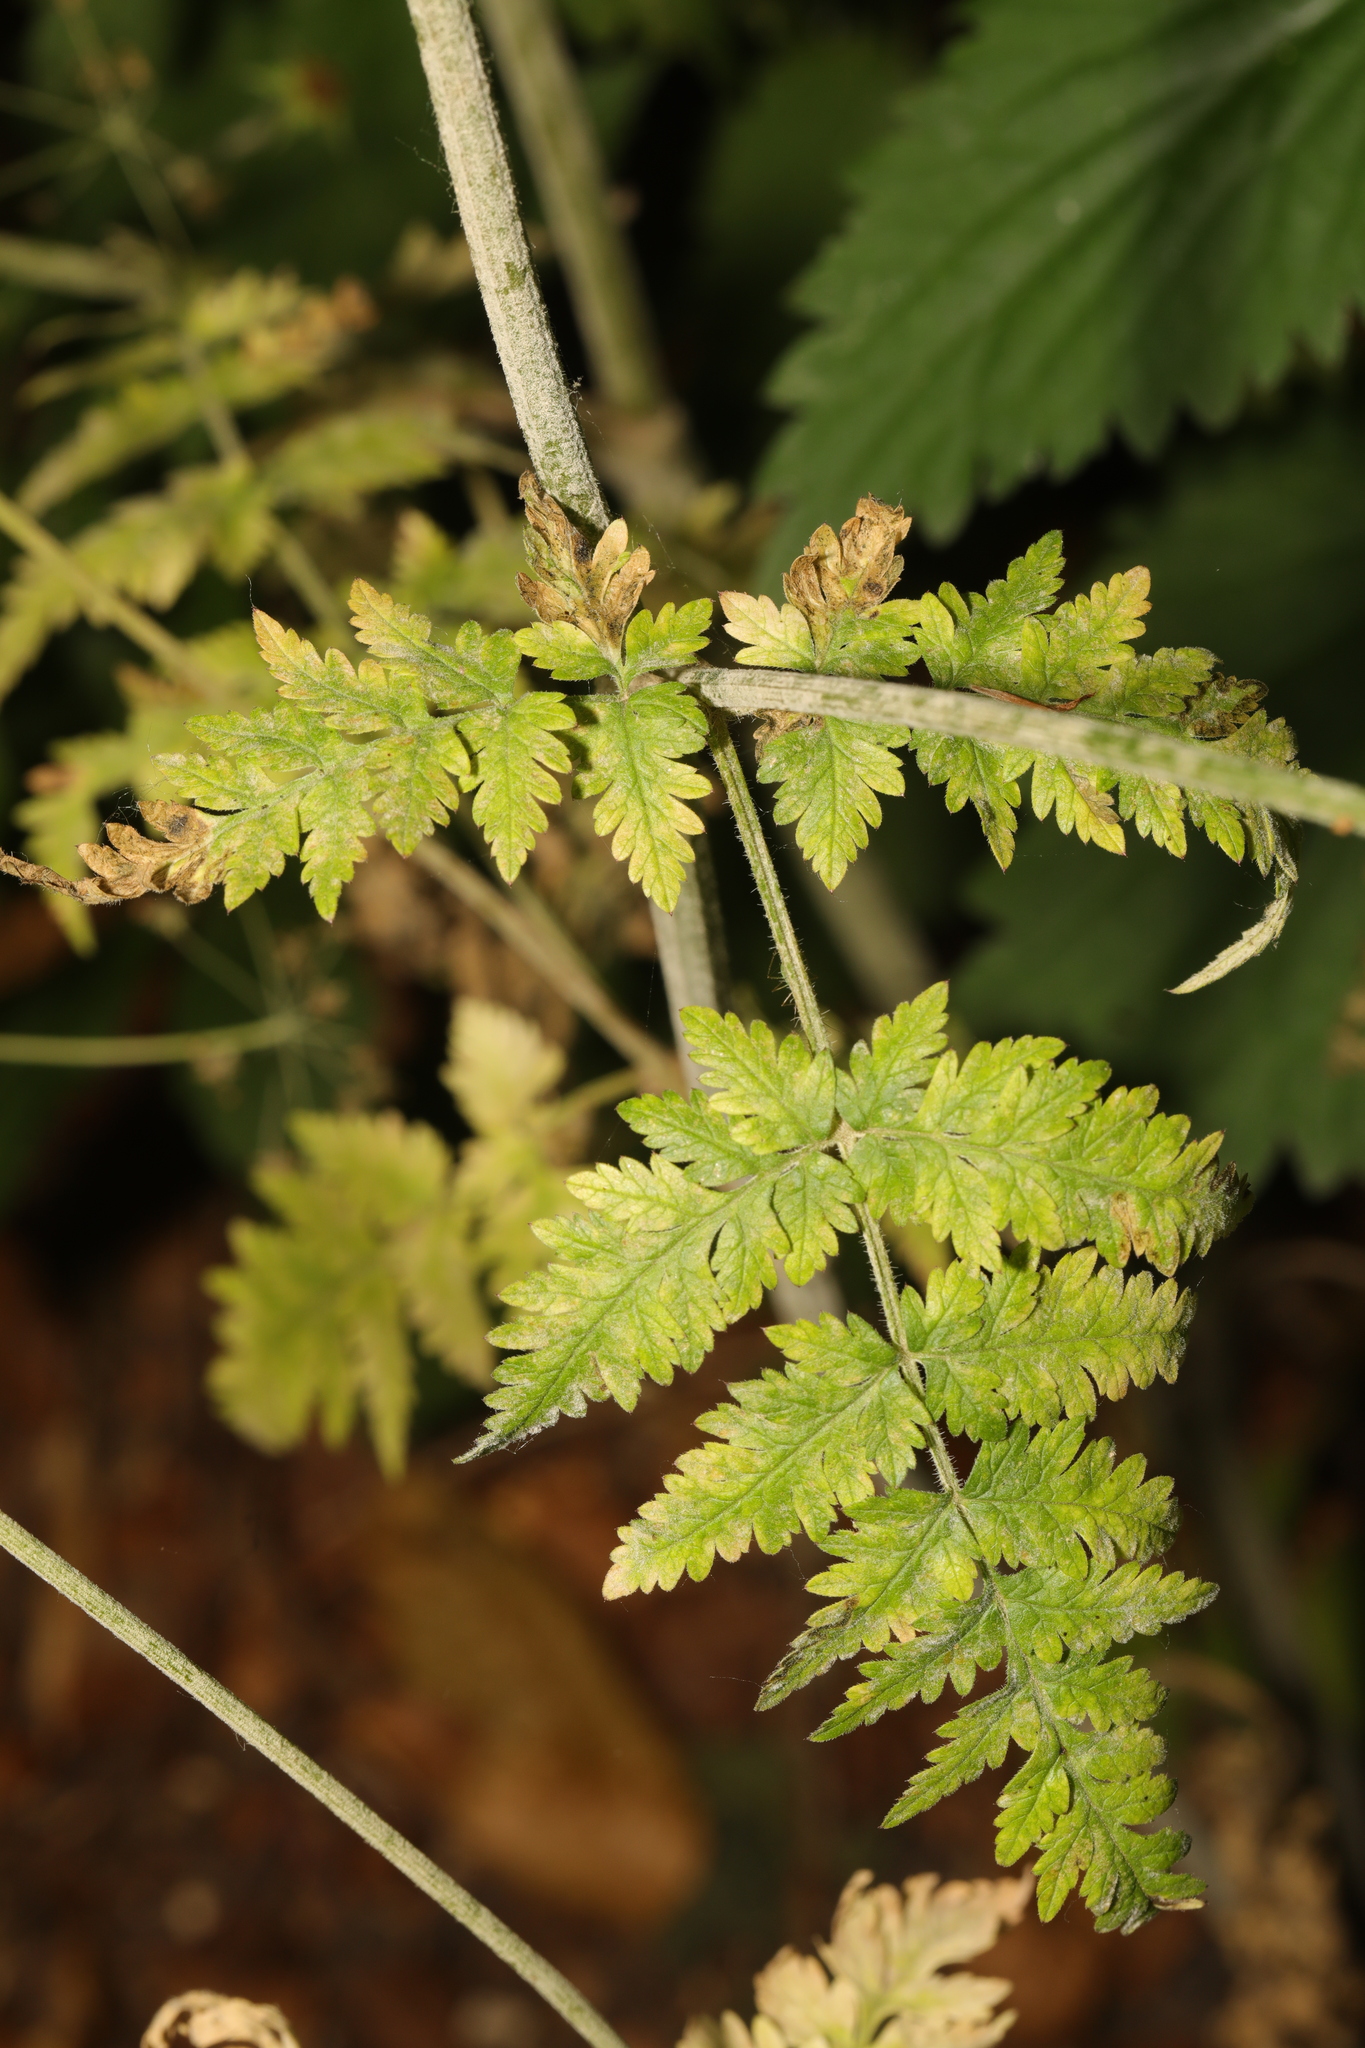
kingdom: Plantae
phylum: Tracheophyta
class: Magnoliopsida
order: Apiales
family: Apiaceae
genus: Anthriscus
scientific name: Anthriscus sylvestris
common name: Cow parsley
